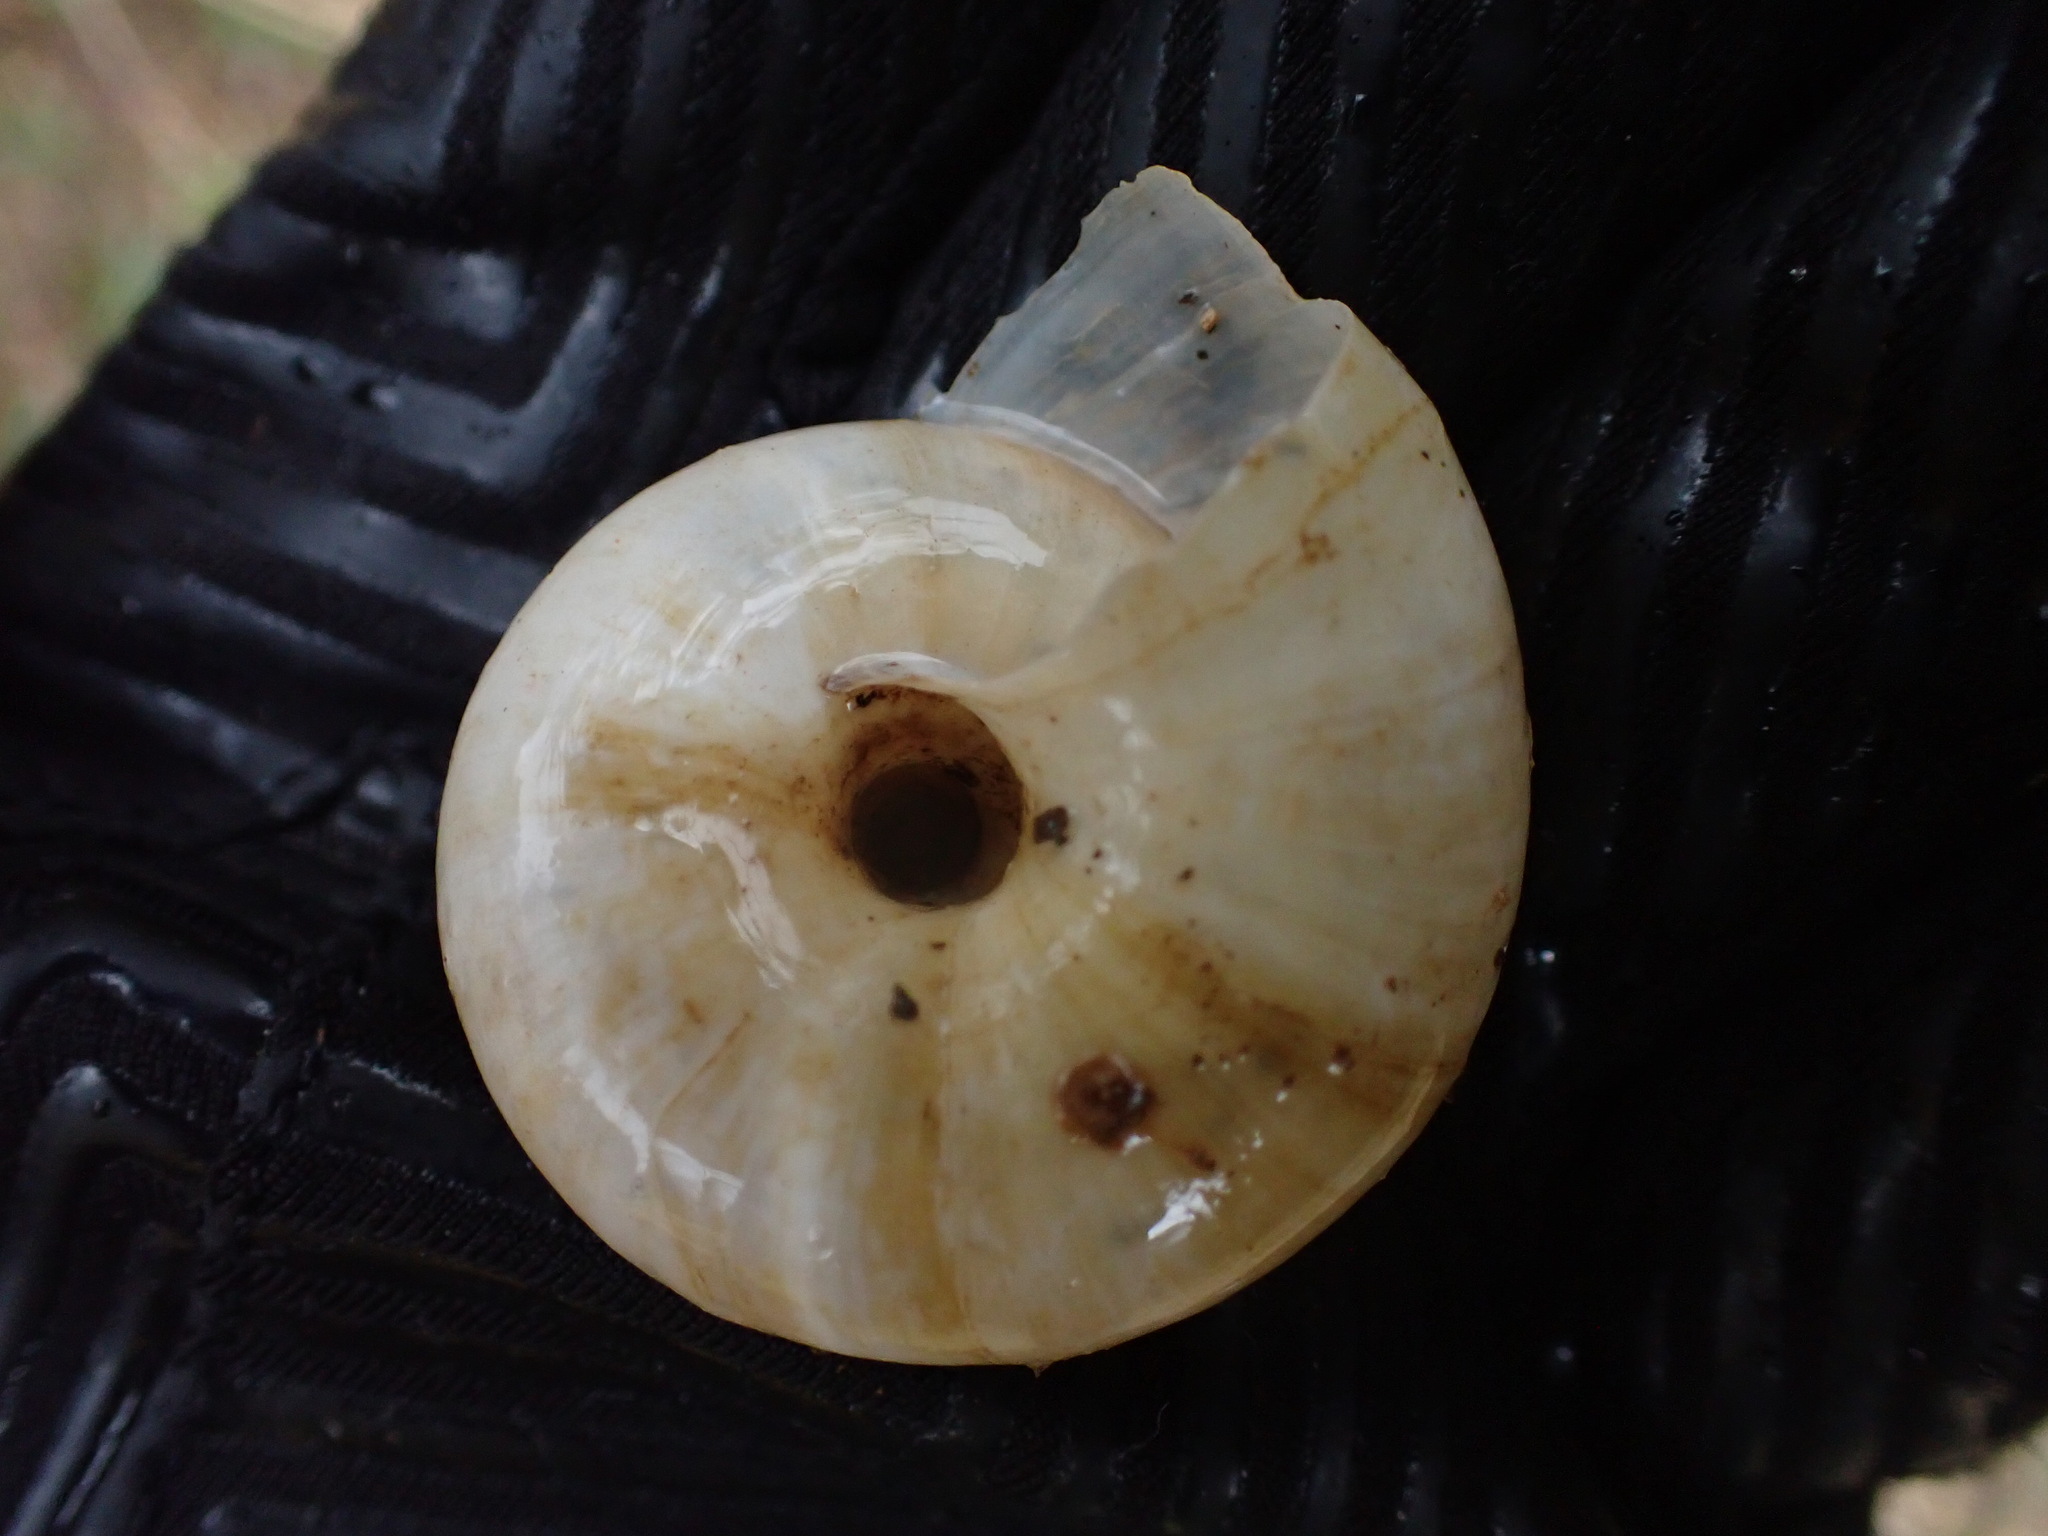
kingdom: Animalia
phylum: Mollusca
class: Gastropoda
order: Stylommatophora
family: Zonitidae
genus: Zonites
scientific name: Zonites algirus
